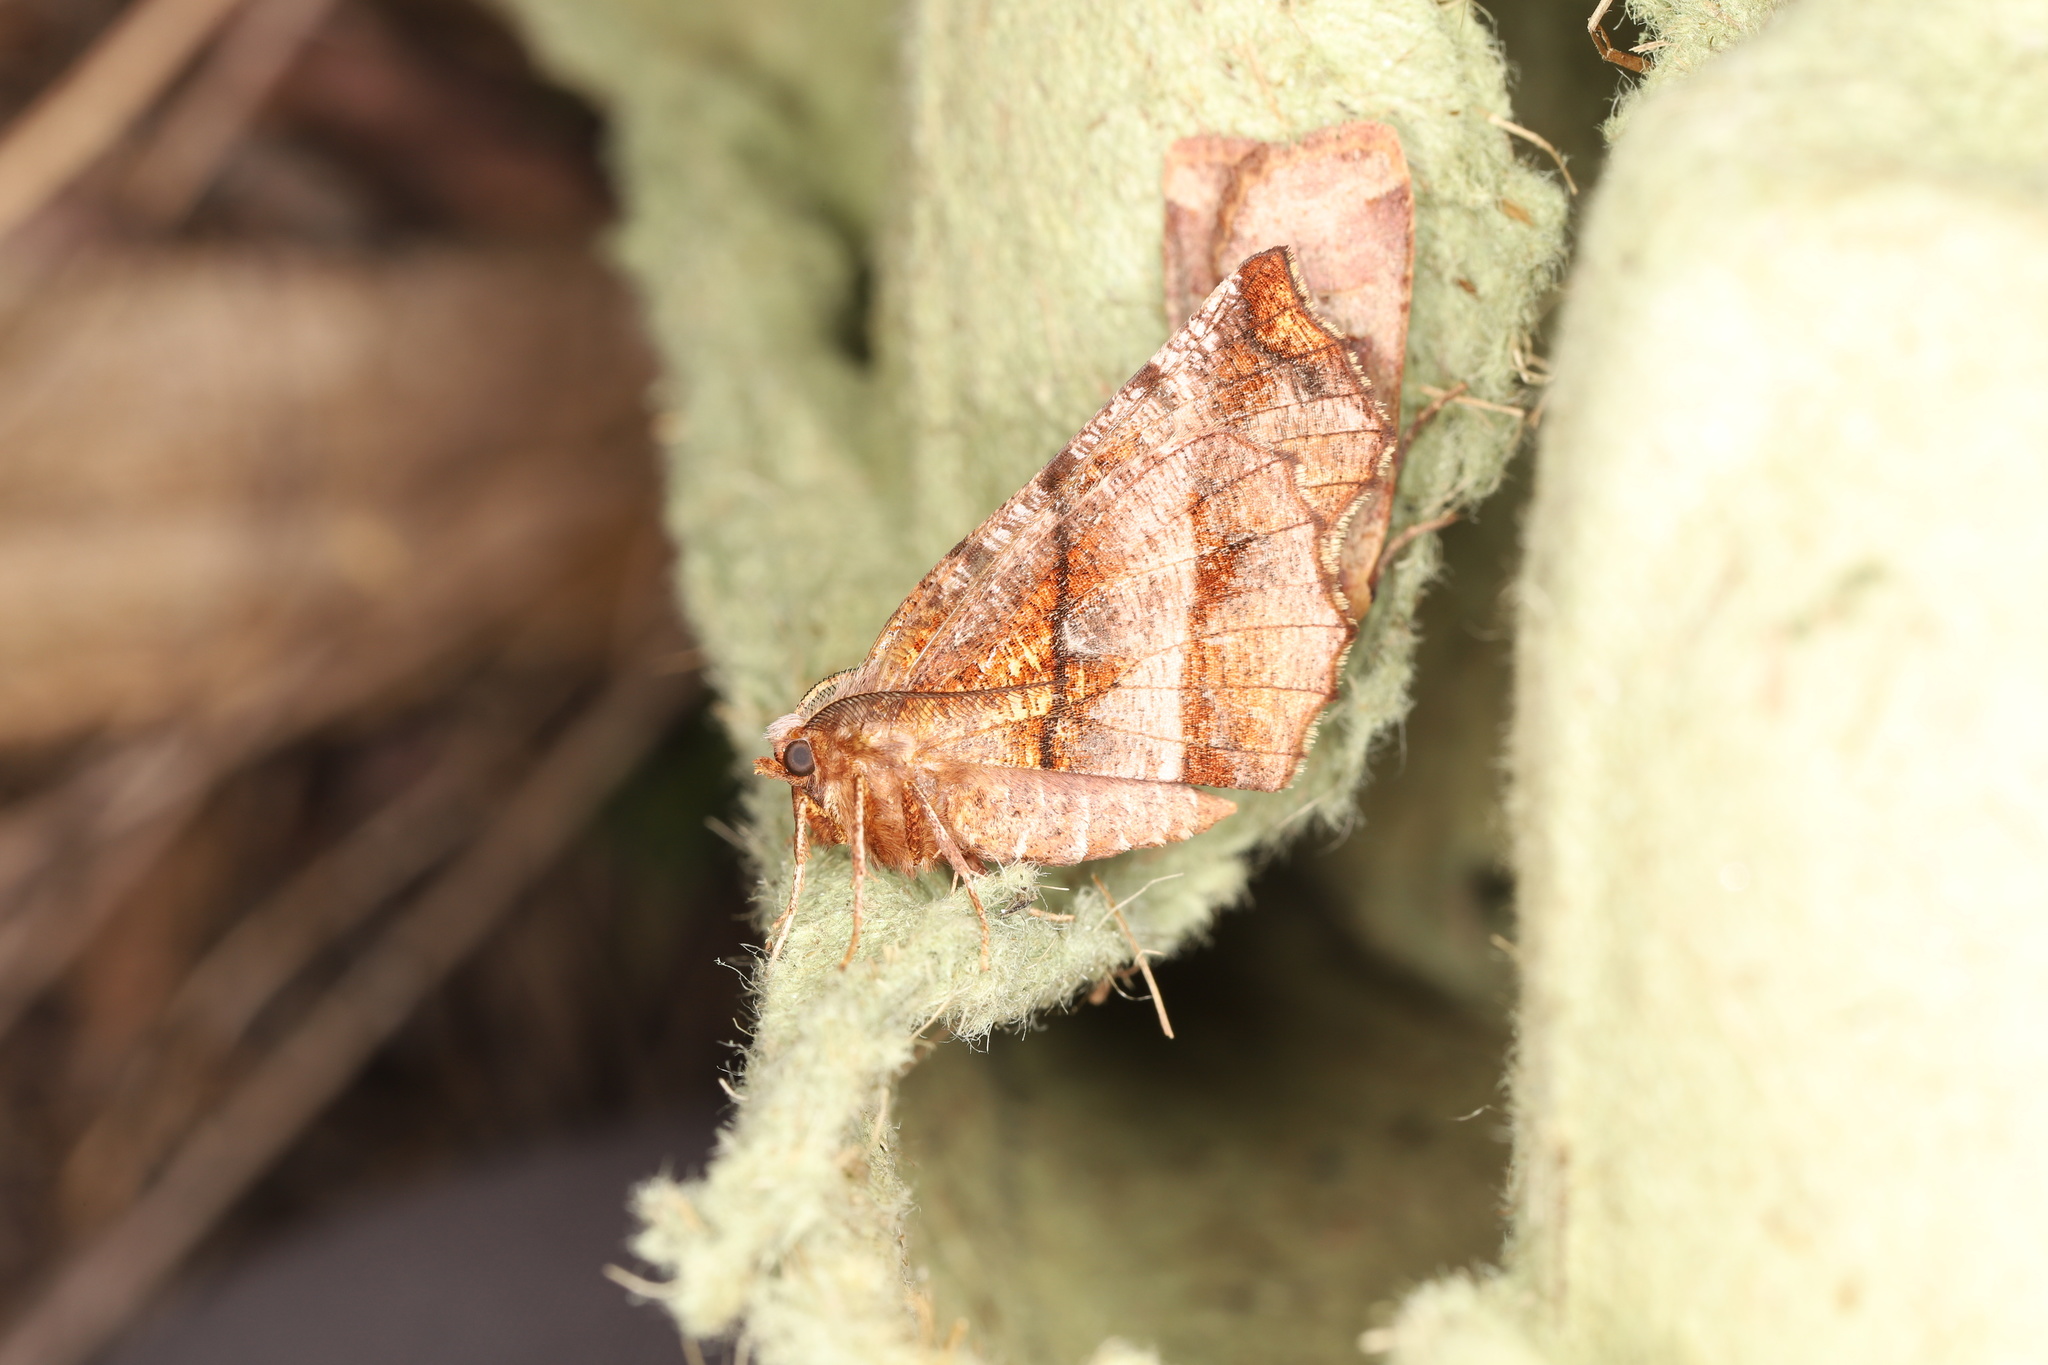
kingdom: Animalia
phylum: Arthropoda
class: Insecta
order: Lepidoptera
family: Geometridae
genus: Selenia
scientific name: Selenia dentaria
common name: Early thorn
